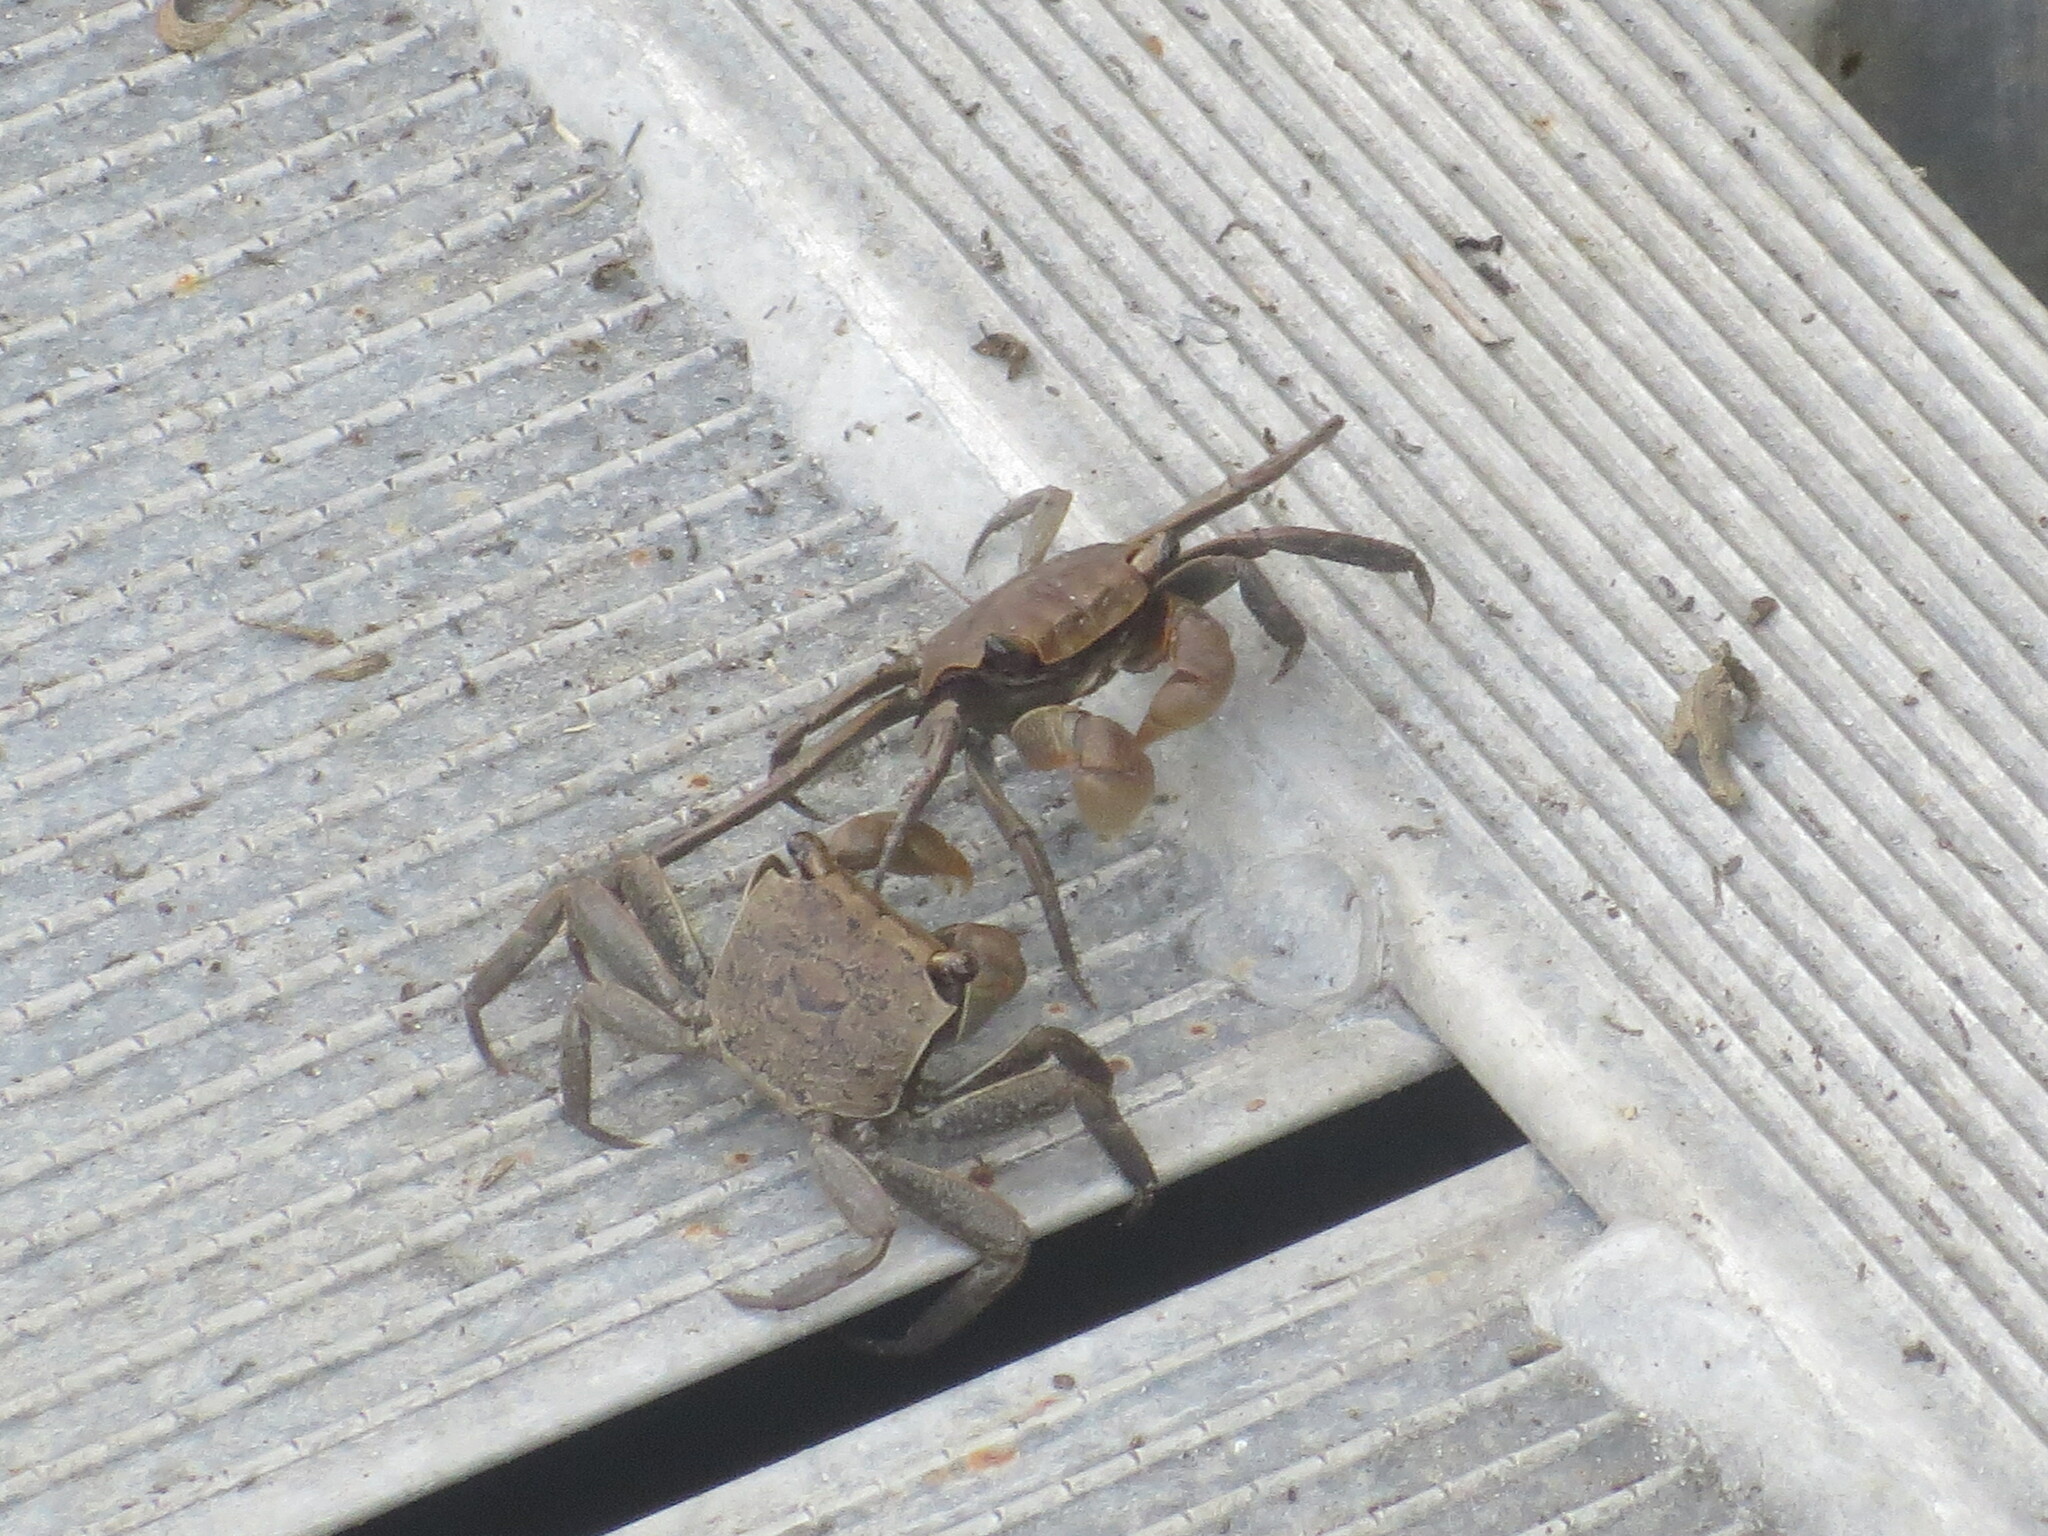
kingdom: Animalia
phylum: Arthropoda
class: Malacostraca
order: Decapoda
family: Sesarmidae
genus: Armases
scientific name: Armases cinereum
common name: Squareback marsh crab
